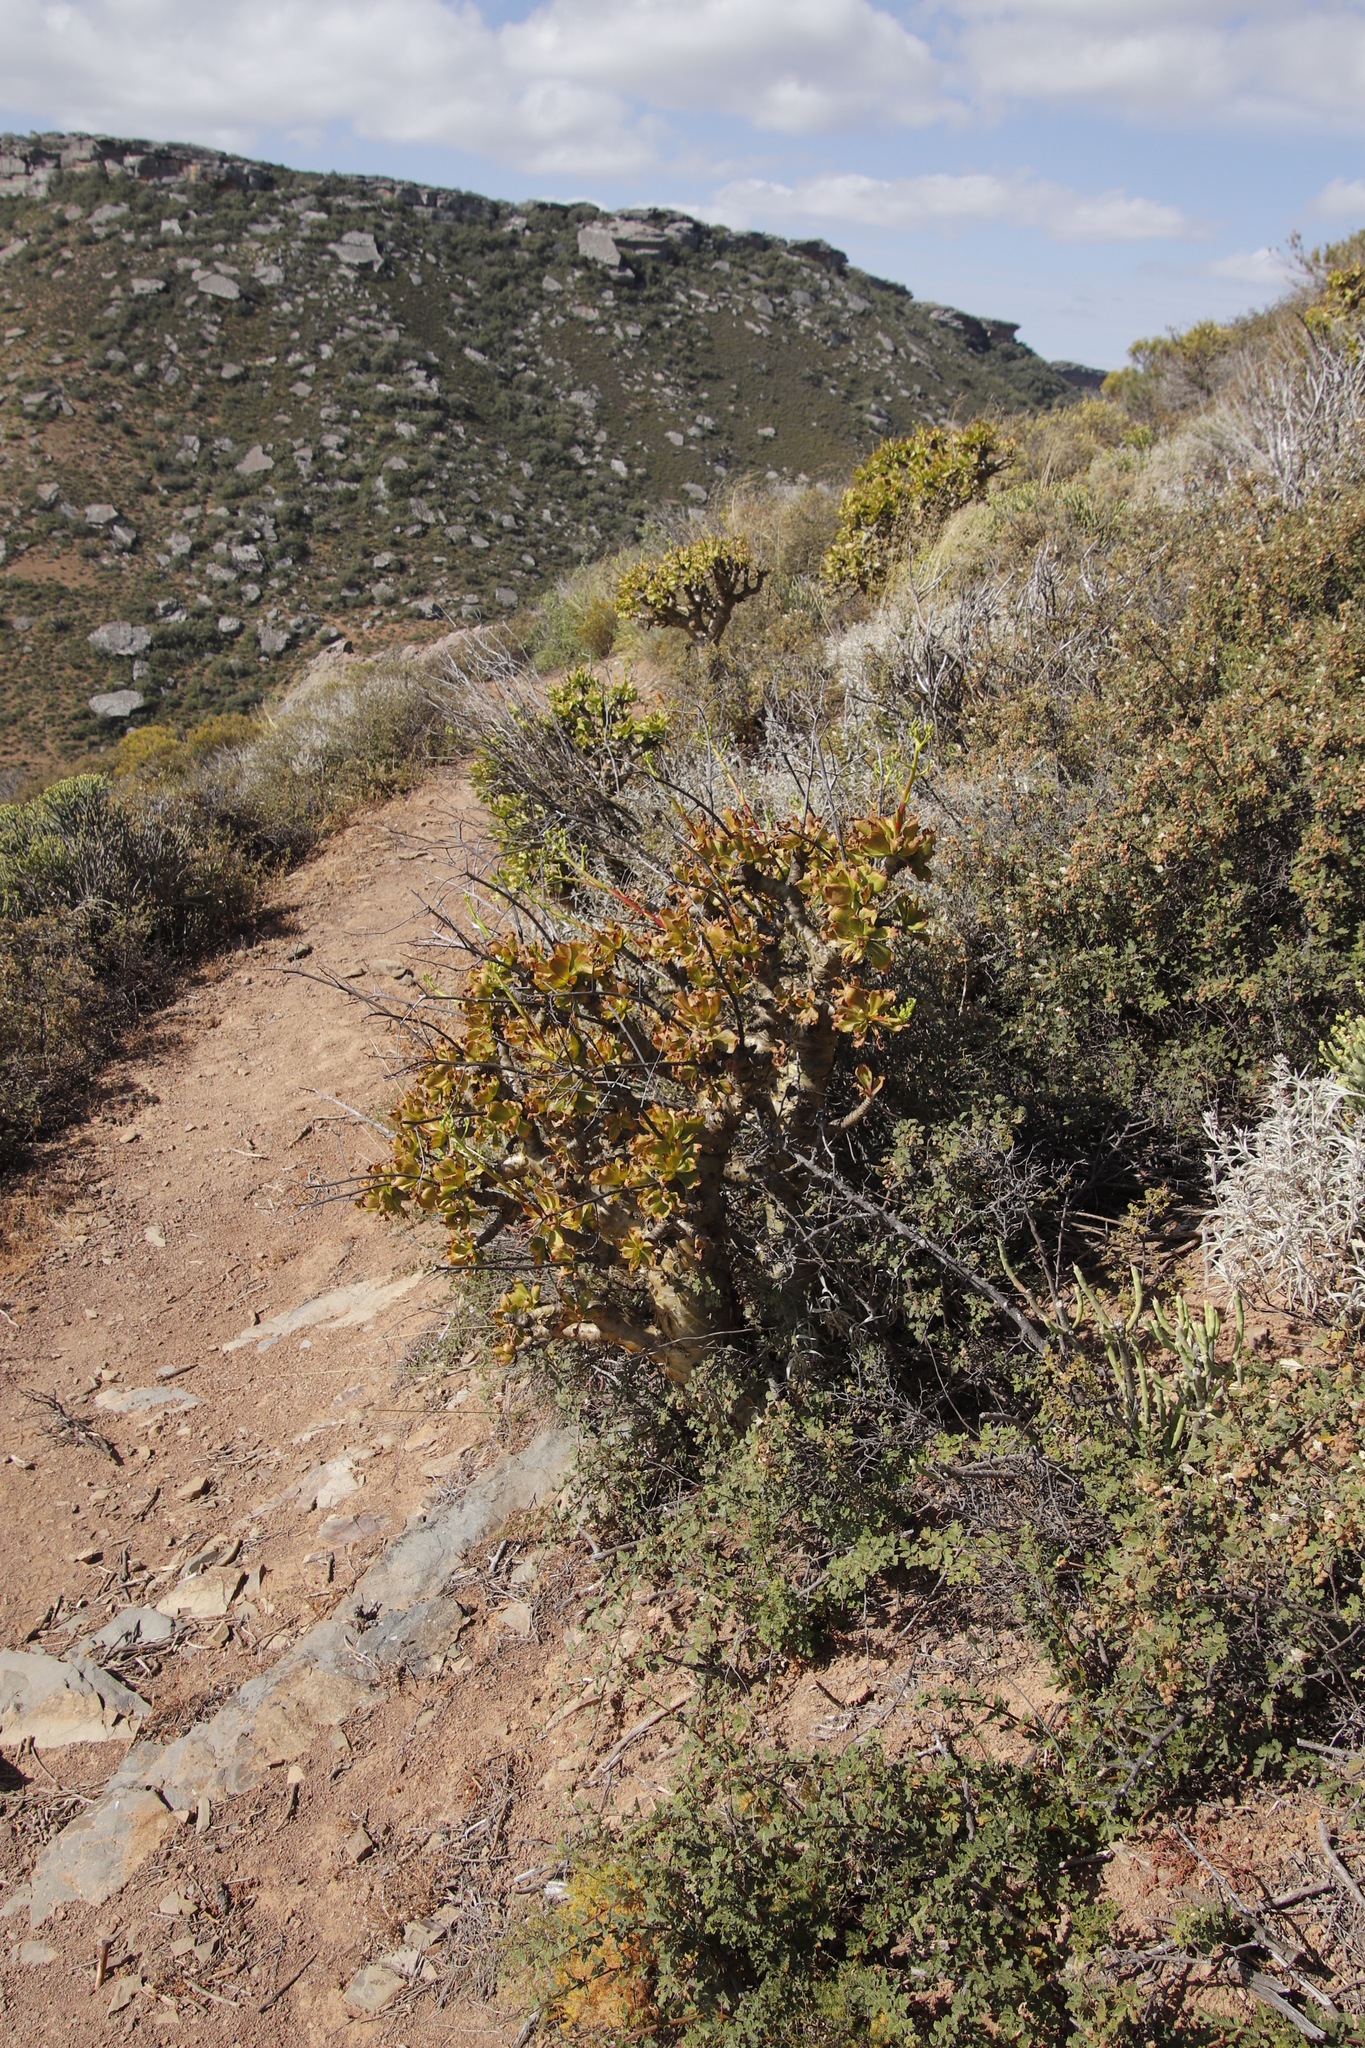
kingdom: Plantae
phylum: Tracheophyta
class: Magnoliopsida
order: Saxifragales
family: Crassulaceae
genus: Tylecodon
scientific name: Tylecodon paniculatus
